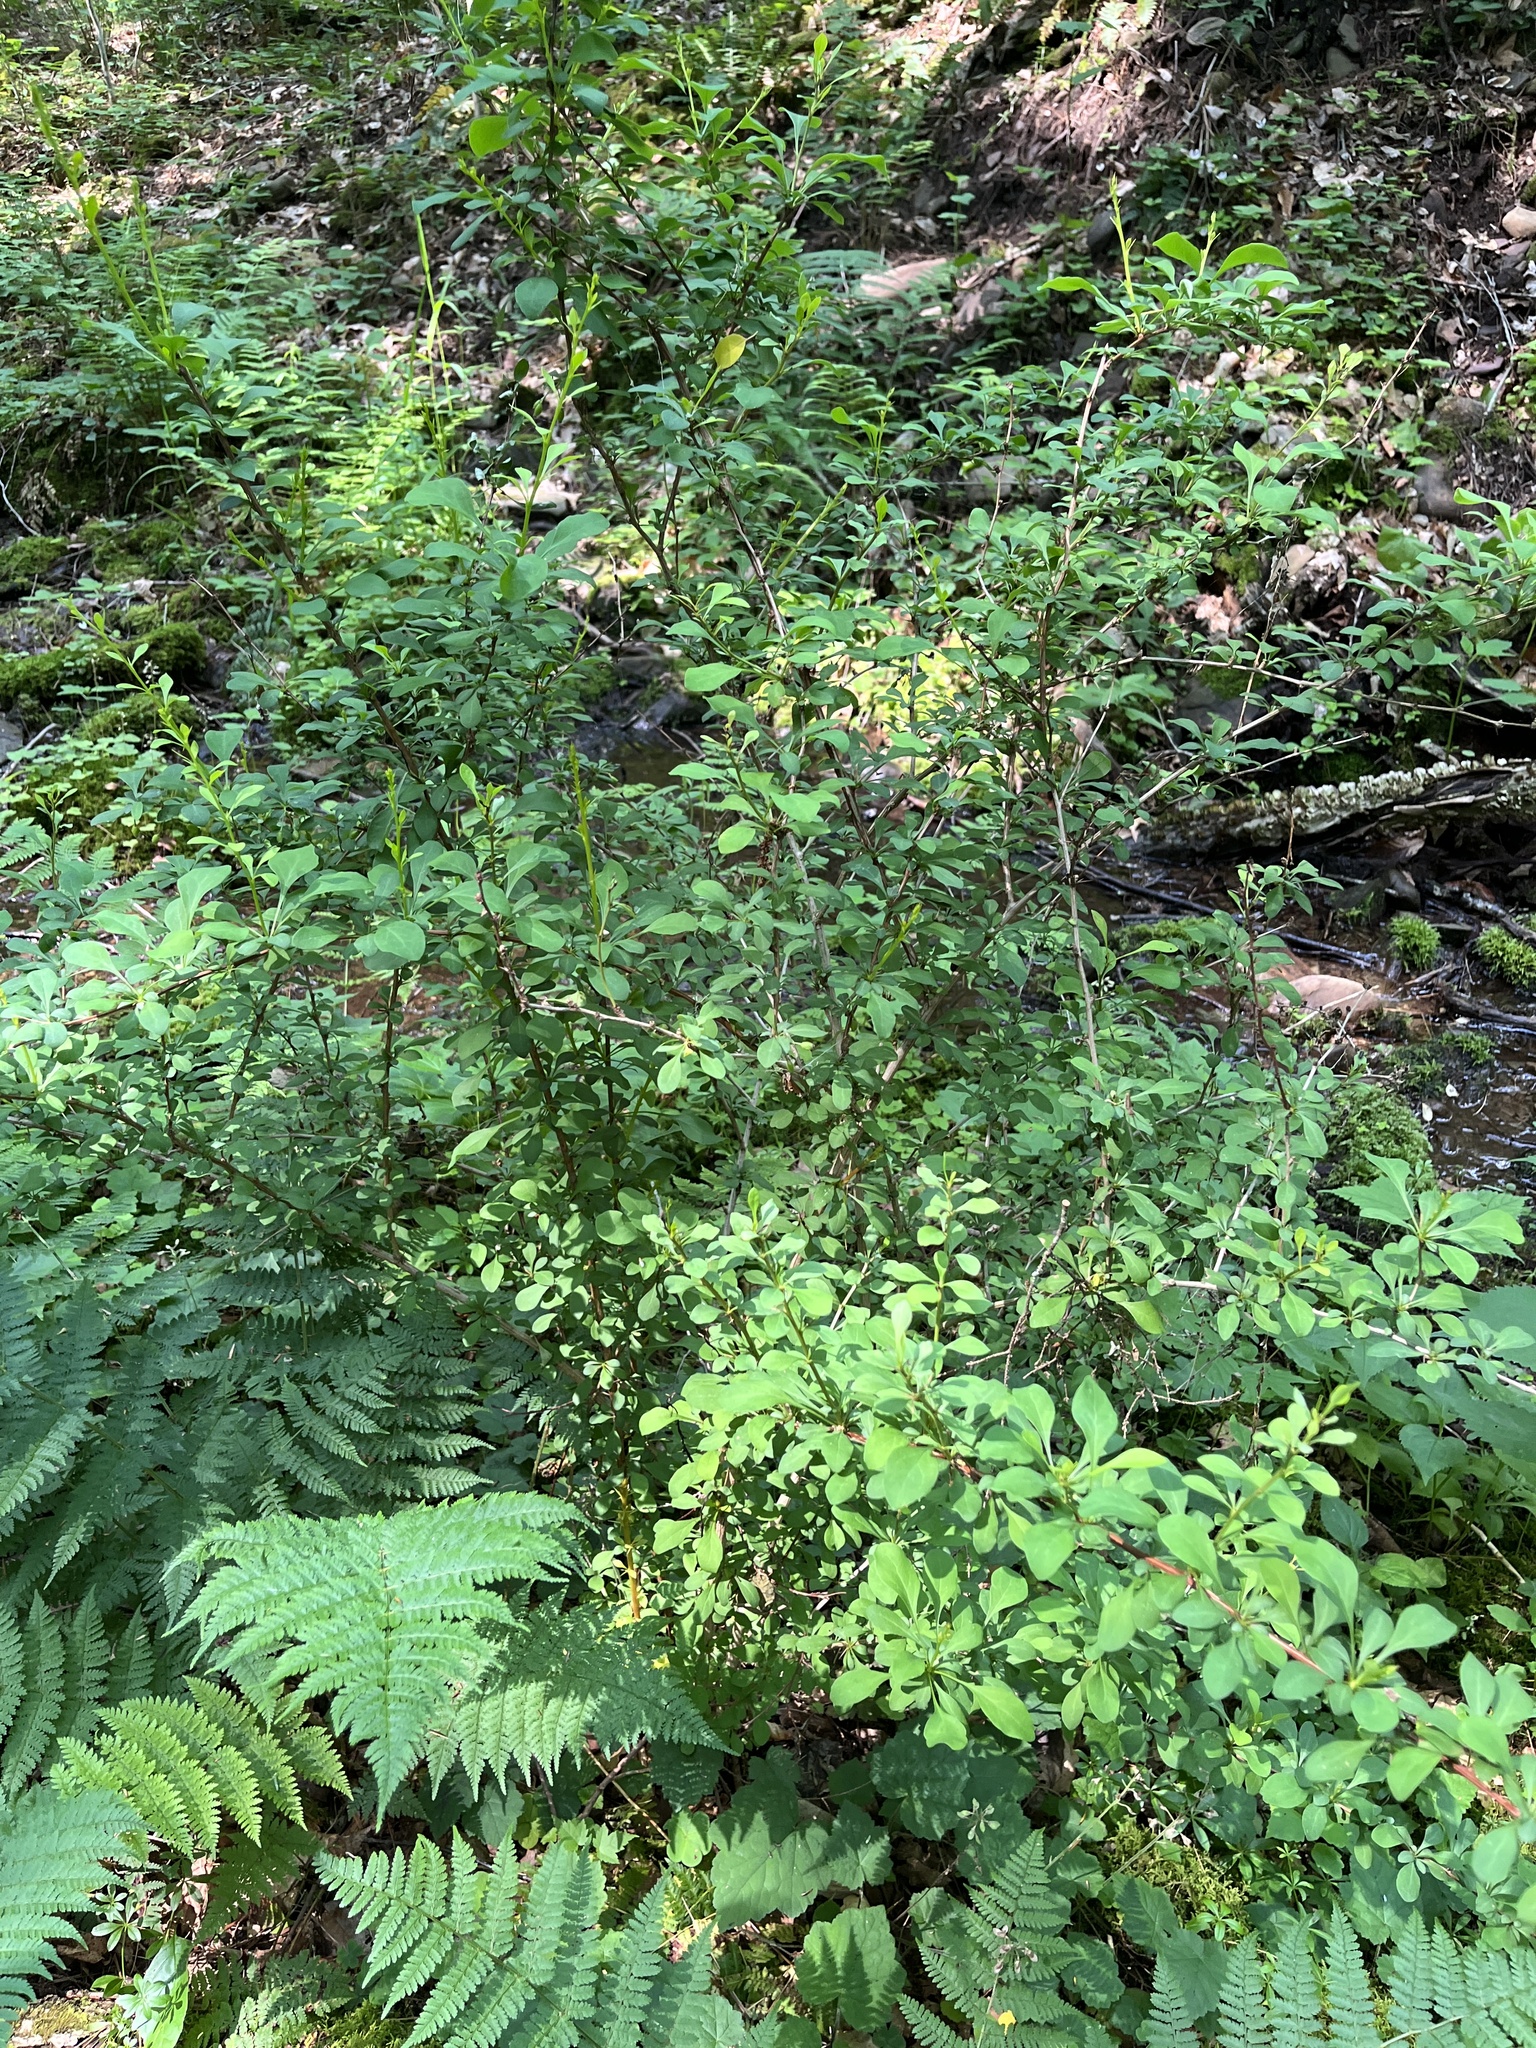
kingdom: Plantae
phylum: Tracheophyta
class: Magnoliopsida
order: Ranunculales
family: Berberidaceae
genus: Berberis
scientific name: Berberis thunbergii
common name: Japanese barberry
